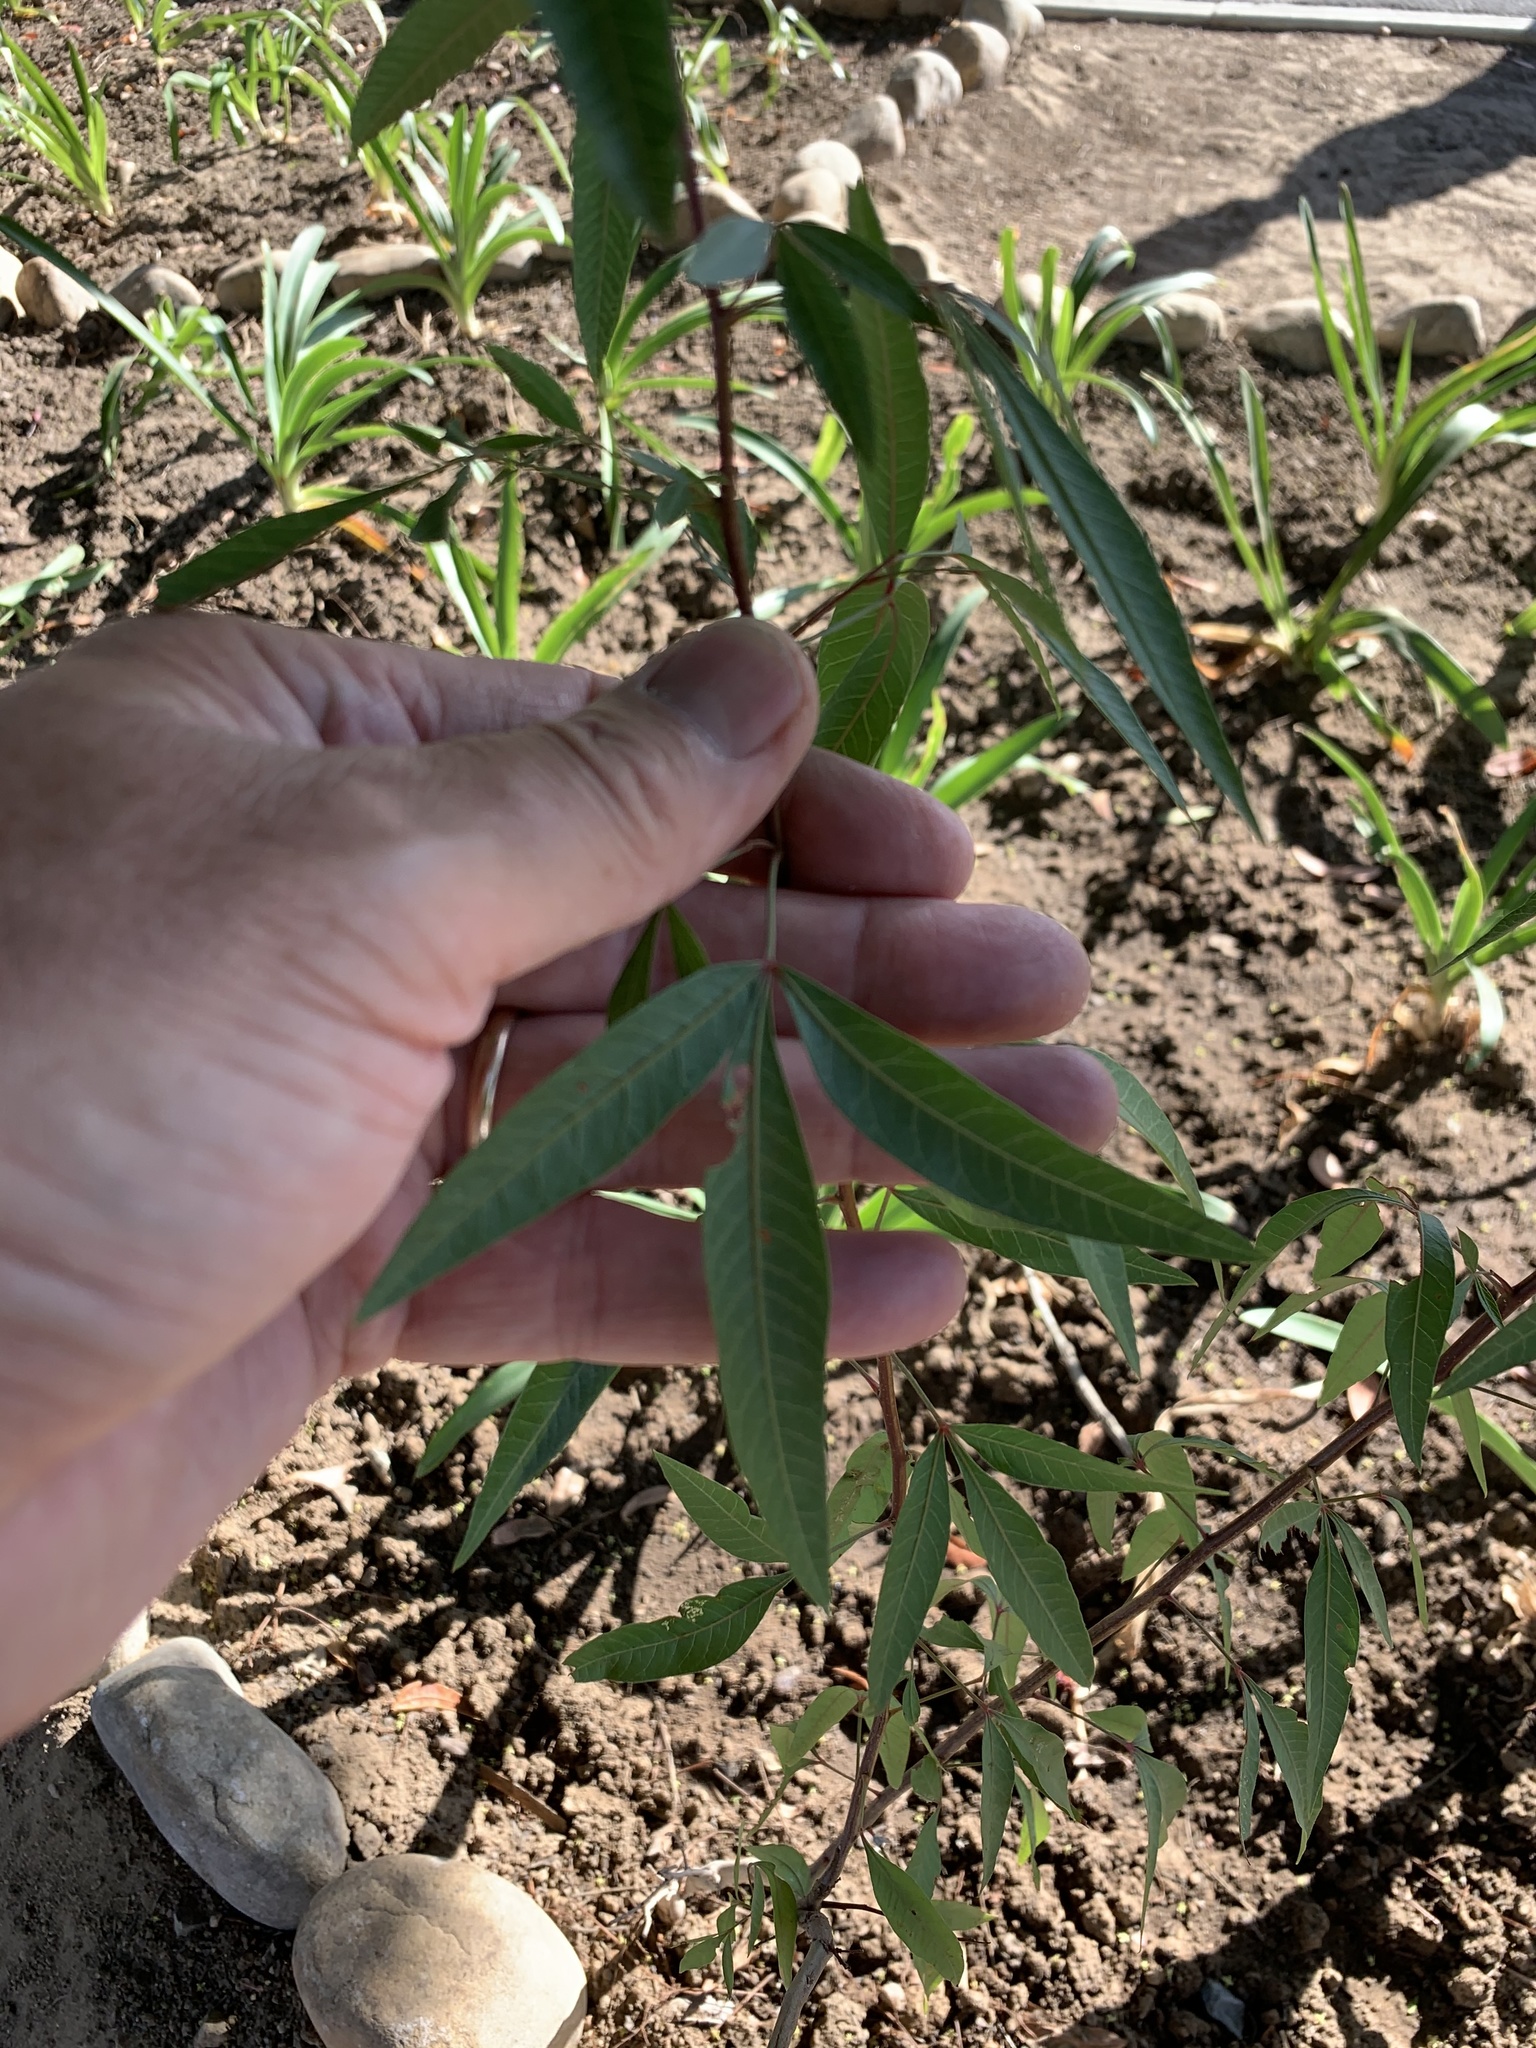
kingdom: Plantae
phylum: Tracheophyta
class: Magnoliopsida
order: Sapindales
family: Anacardiaceae
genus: Searsia
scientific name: Searsia pendulina
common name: White karee
